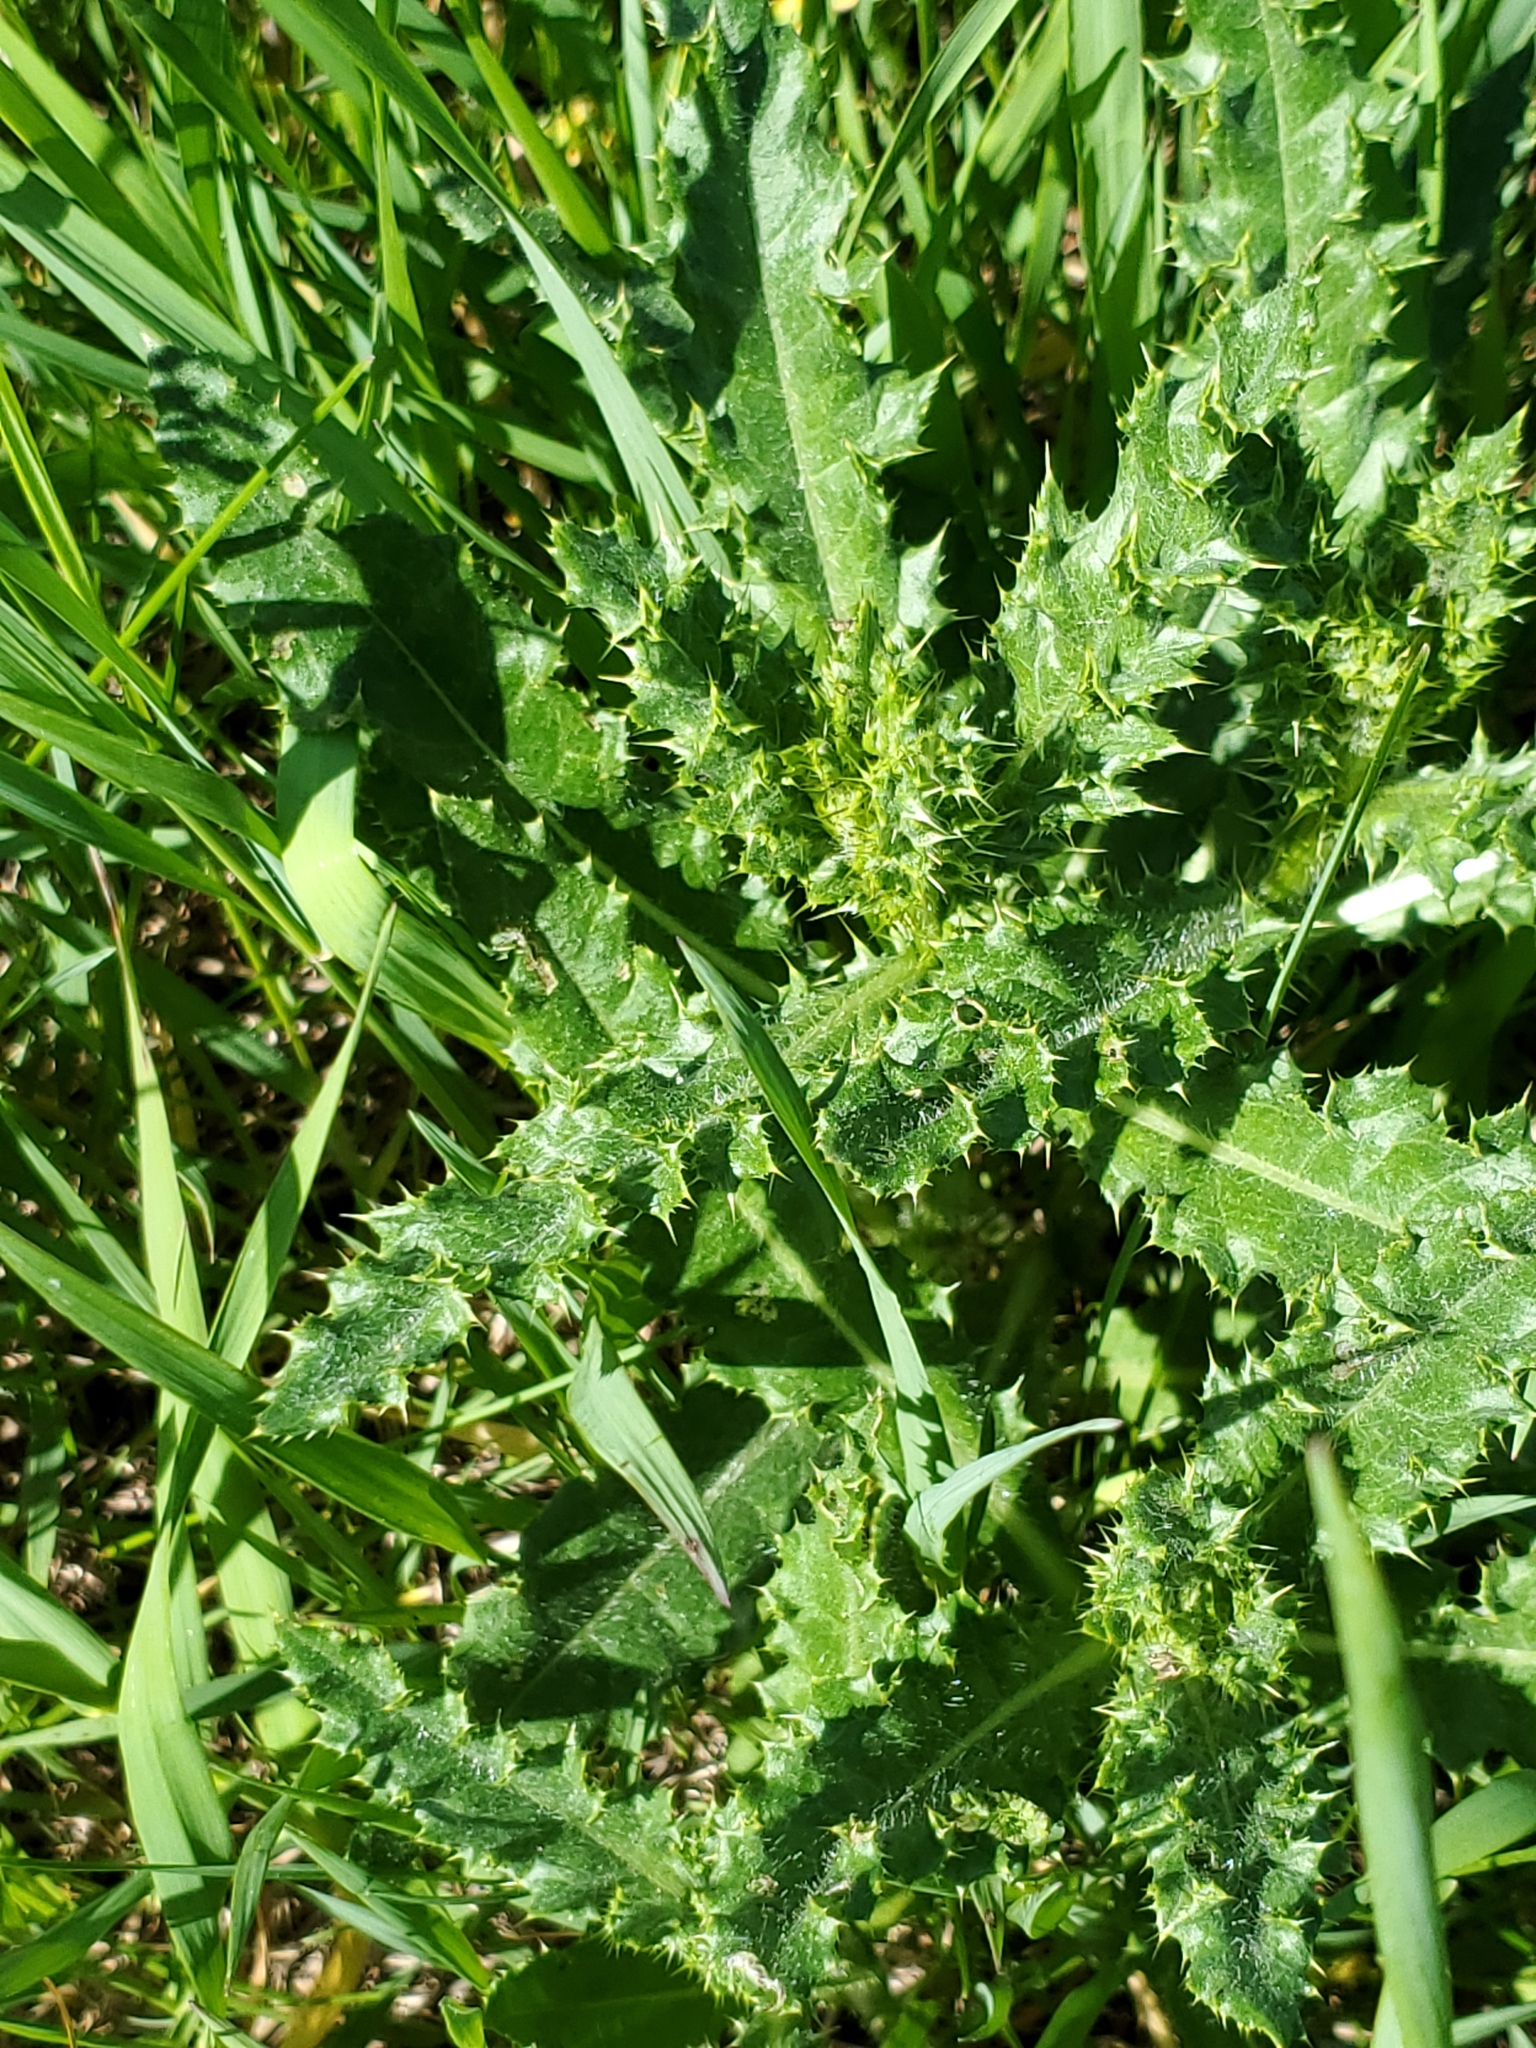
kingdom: Plantae
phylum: Tracheophyta
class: Magnoliopsida
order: Asterales
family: Asteraceae
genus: Cirsium
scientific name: Cirsium arvense
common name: Creeping thistle
